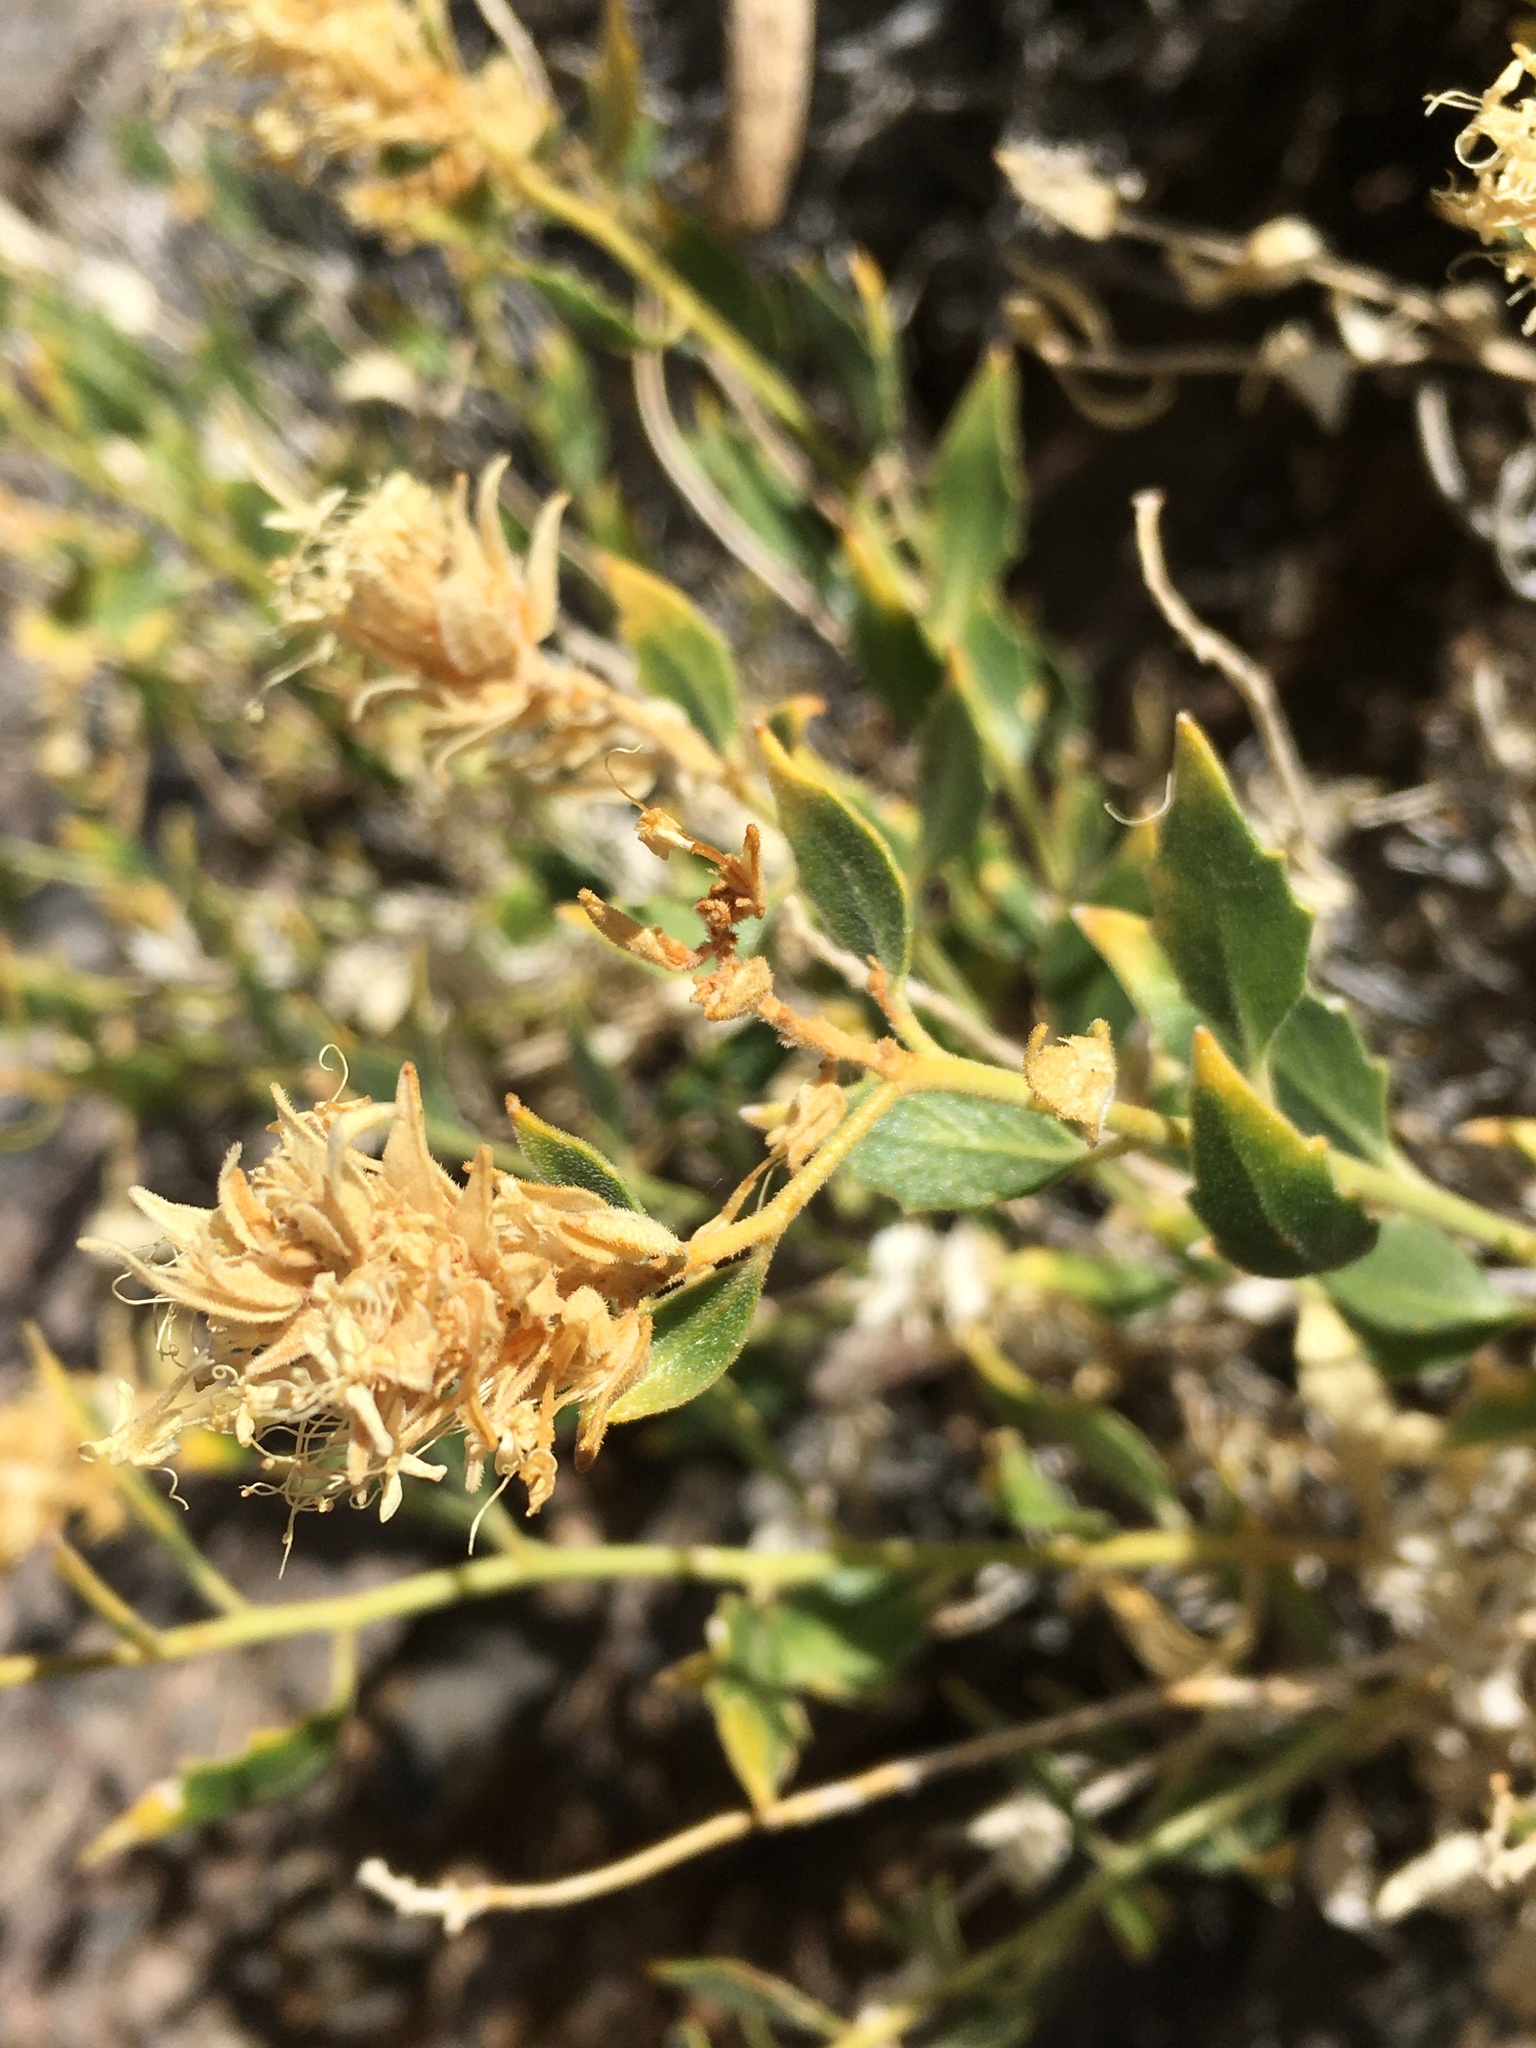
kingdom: Plantae
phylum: Tracheophyta
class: Magnoliopsida
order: Cornales
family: Loasaceae
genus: Petalonyx
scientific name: Petalonyx nitidus
